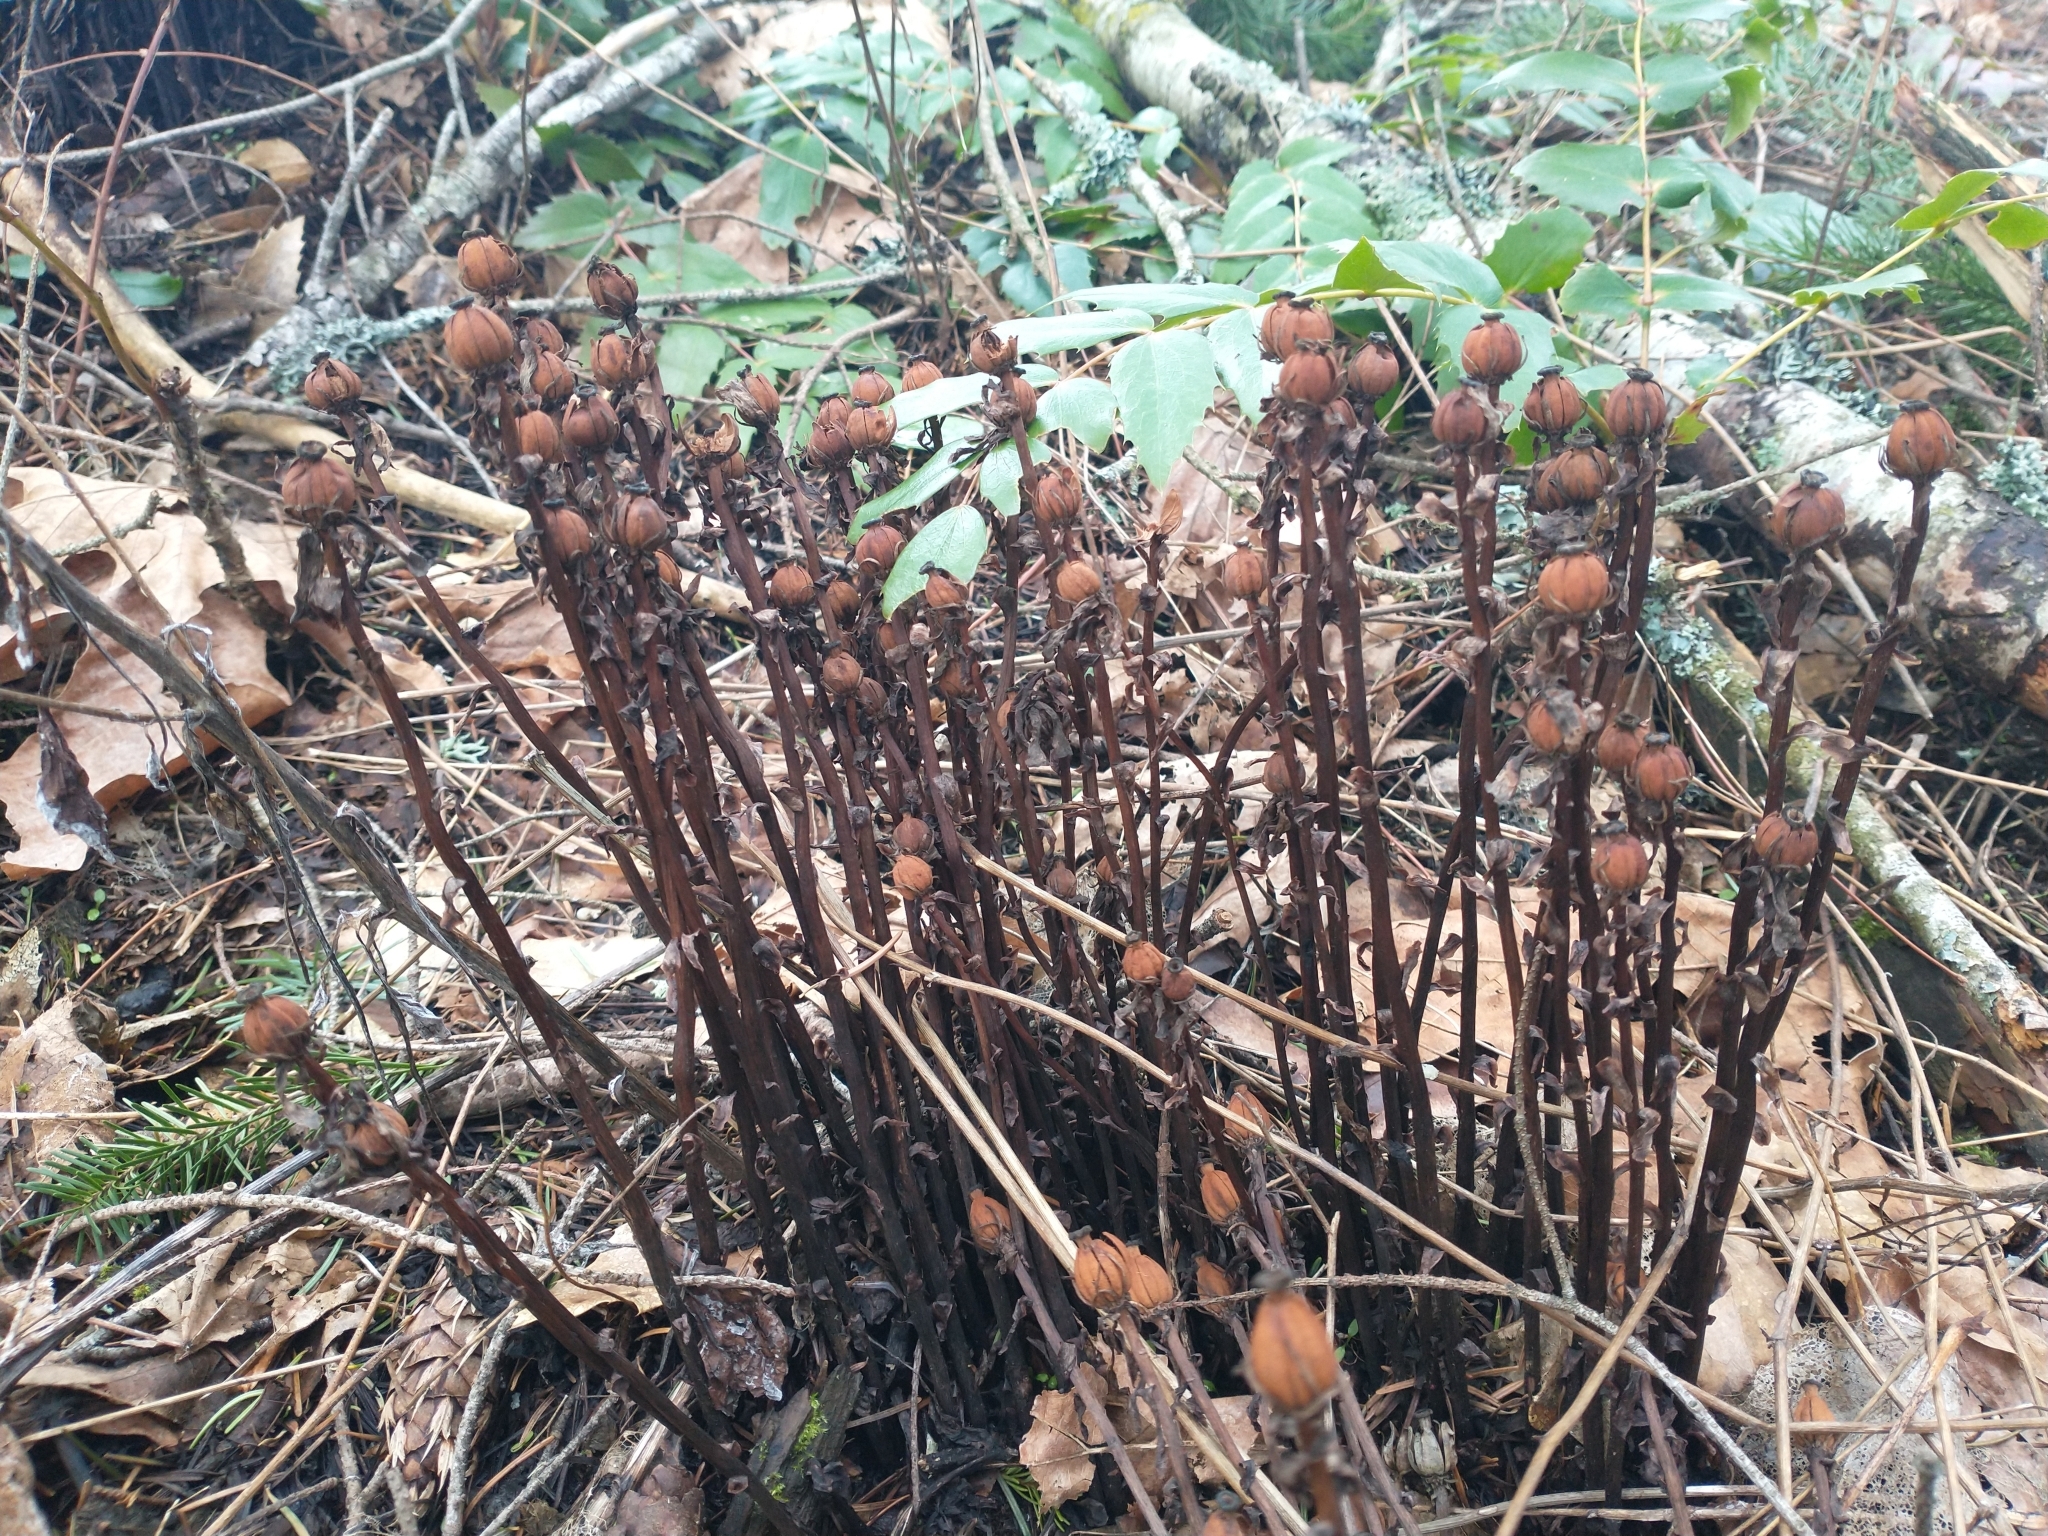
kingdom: Plantae
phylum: Tracheophyta
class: Magnoliopsida
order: Ericales
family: Ericaceae
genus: Monotropa
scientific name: Monotropa uniflora
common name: Convulsion root
